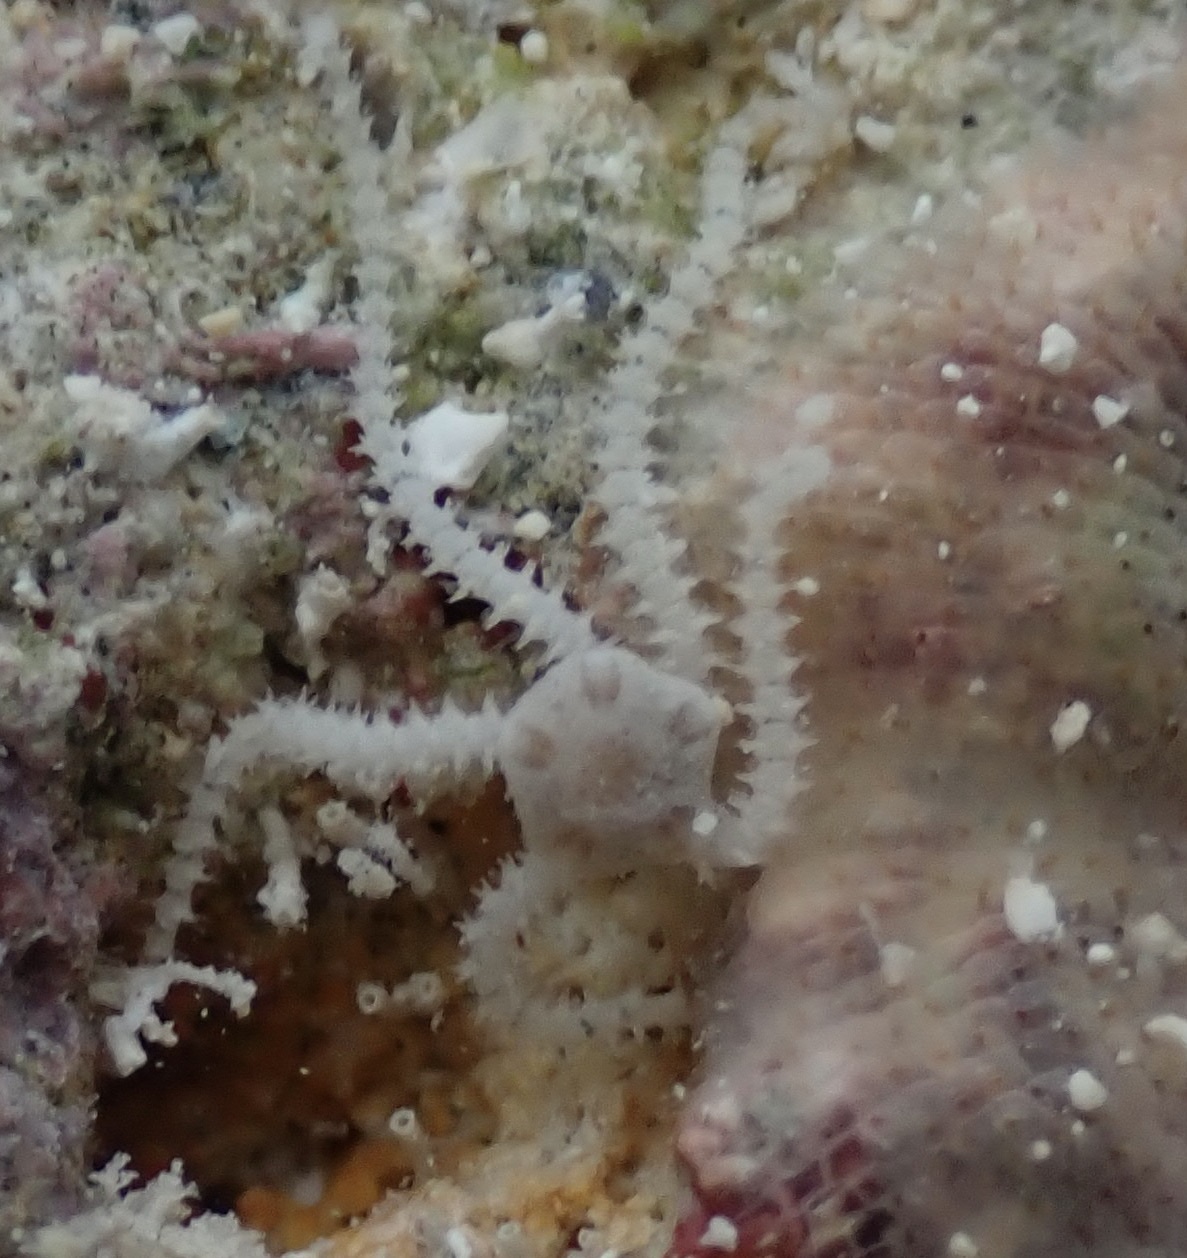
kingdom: Animalia
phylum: Echinodermata
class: Ophiuroidea
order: Amphilepidida
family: Amphiuridae
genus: Amphipholis
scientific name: Amphipholis squamata
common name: Brooding snake star
